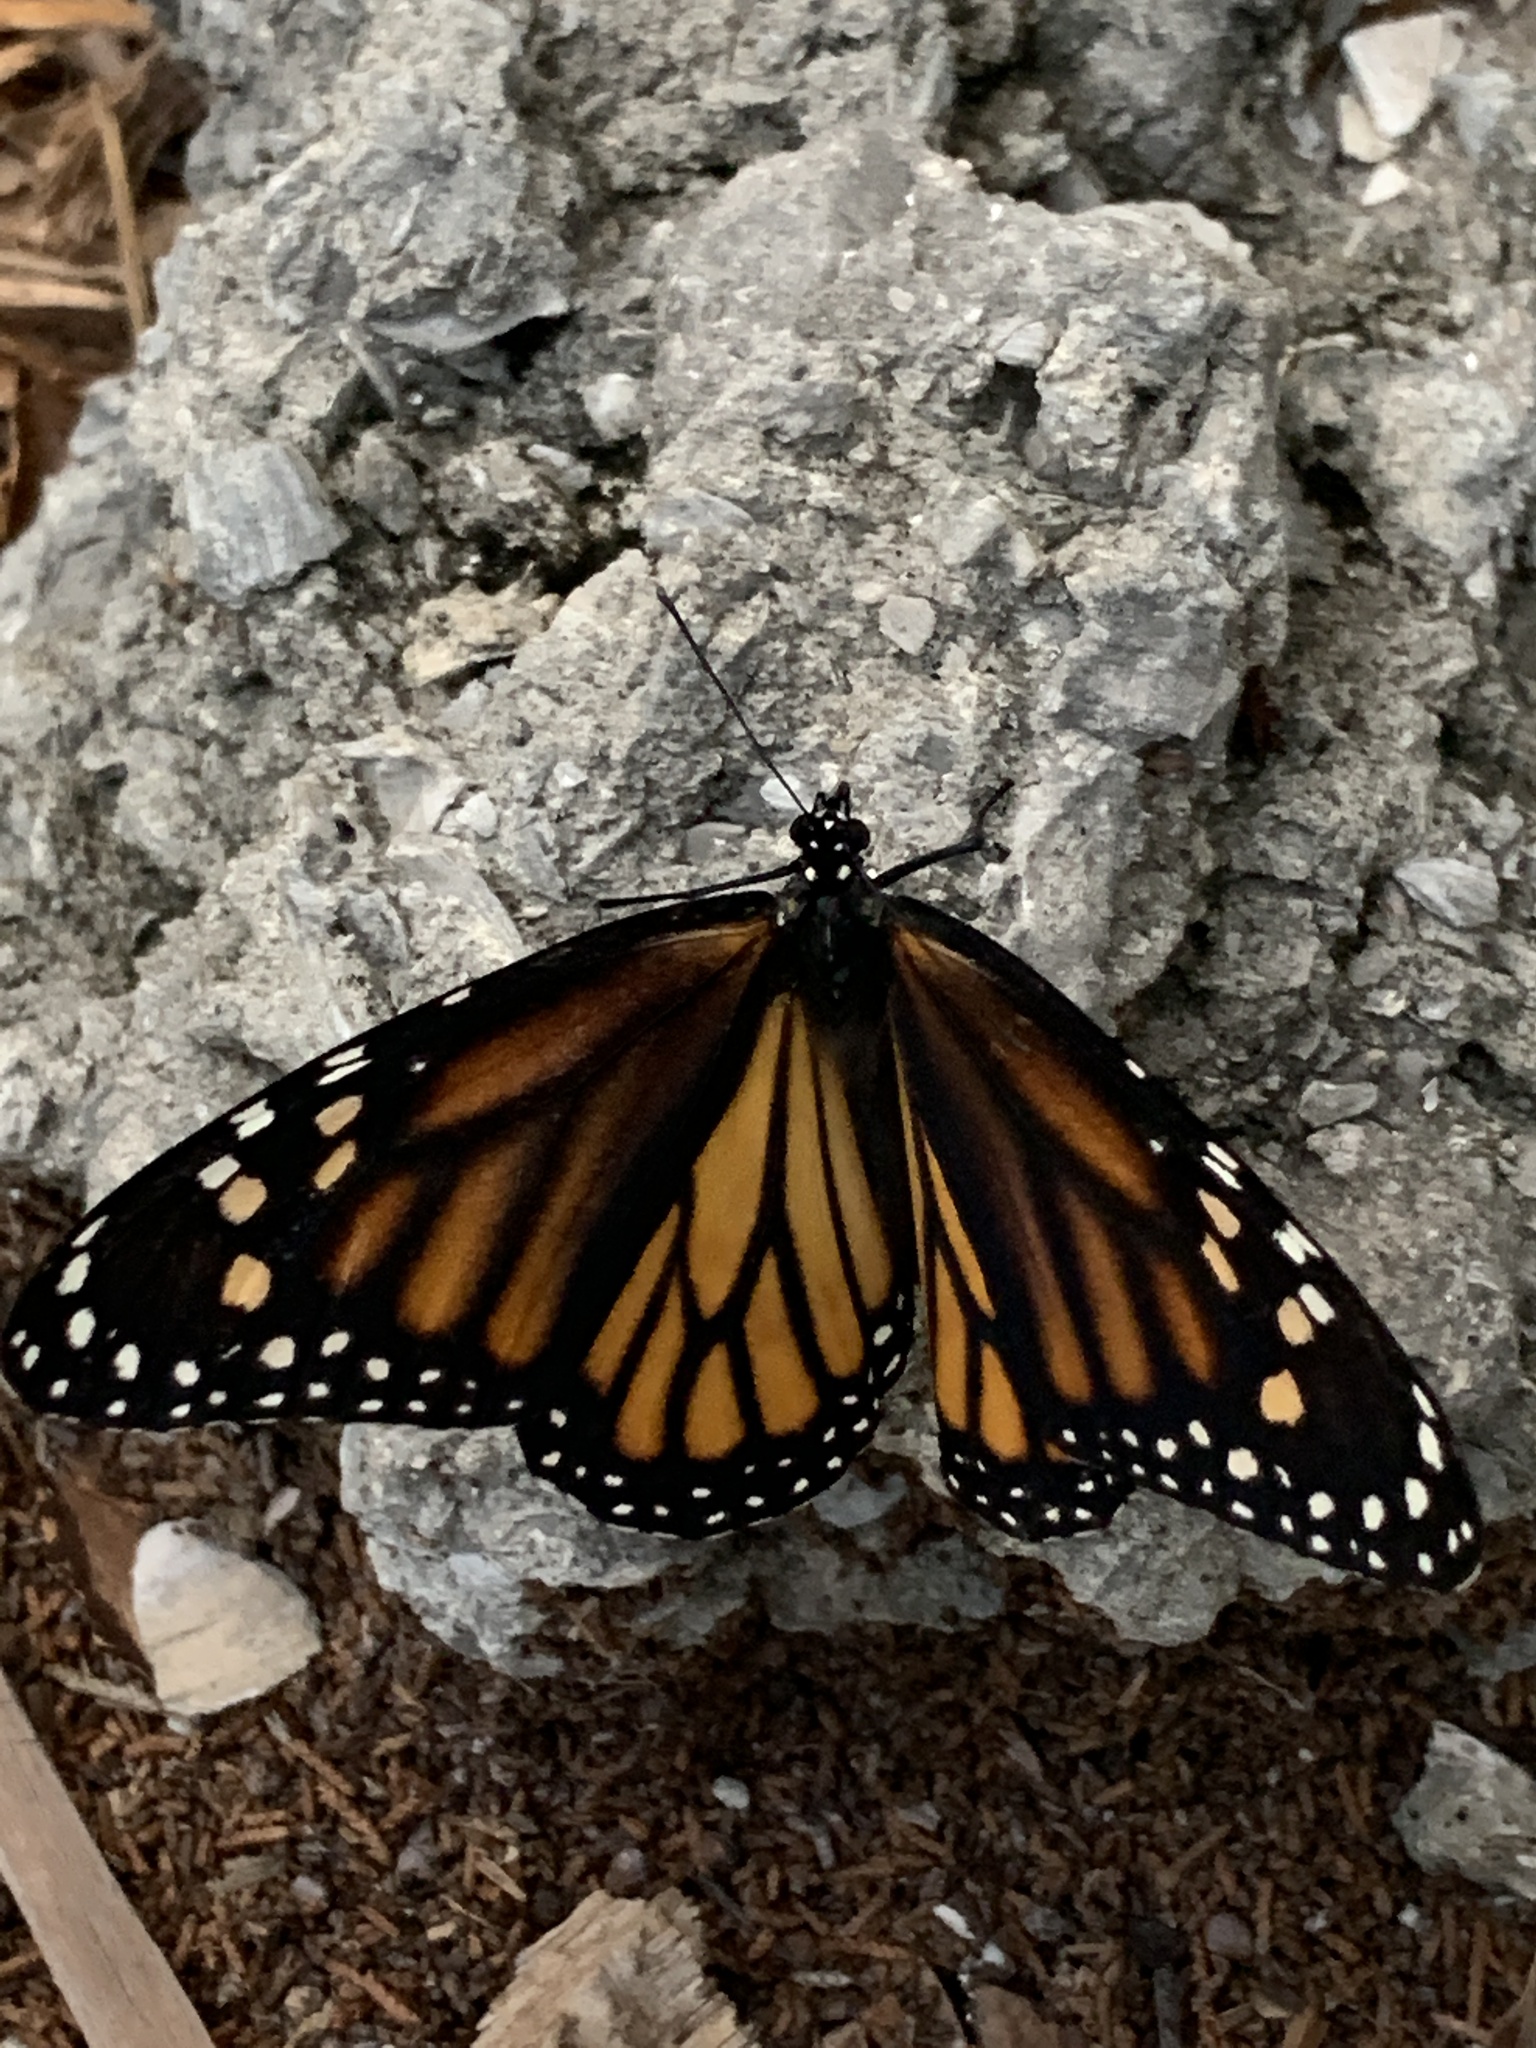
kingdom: Animalia
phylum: Arthropoda
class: Insecta
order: Lepidoptera
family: Nymphalidae
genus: Danaus
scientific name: Danaus plexippus
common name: Monarch
